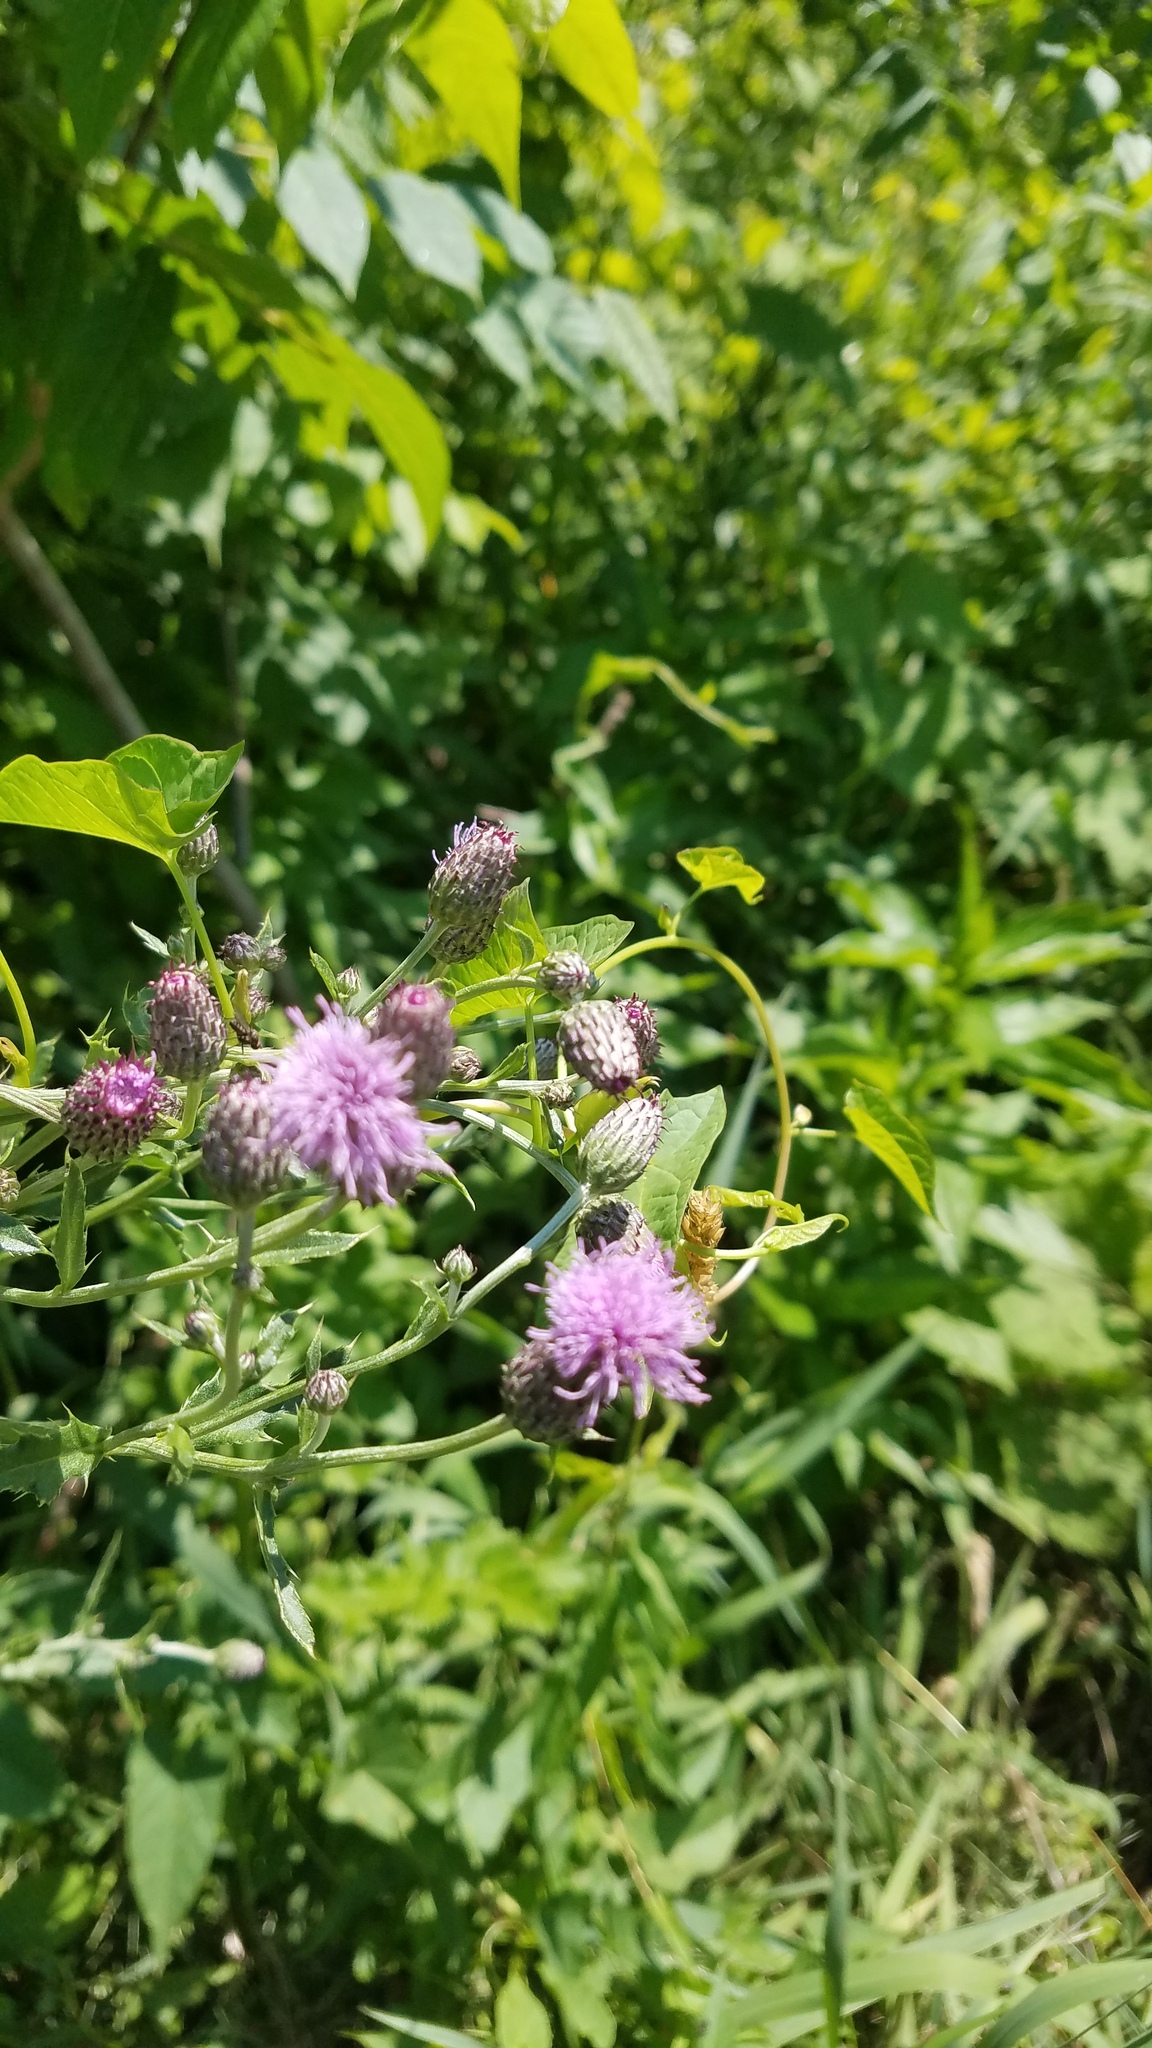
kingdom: Plantae
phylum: Tracheophyta
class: Magnoliopsida
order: Asterales
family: Asteraceae
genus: Cirsium
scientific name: Cirsium arvense
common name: Creeping thistle
